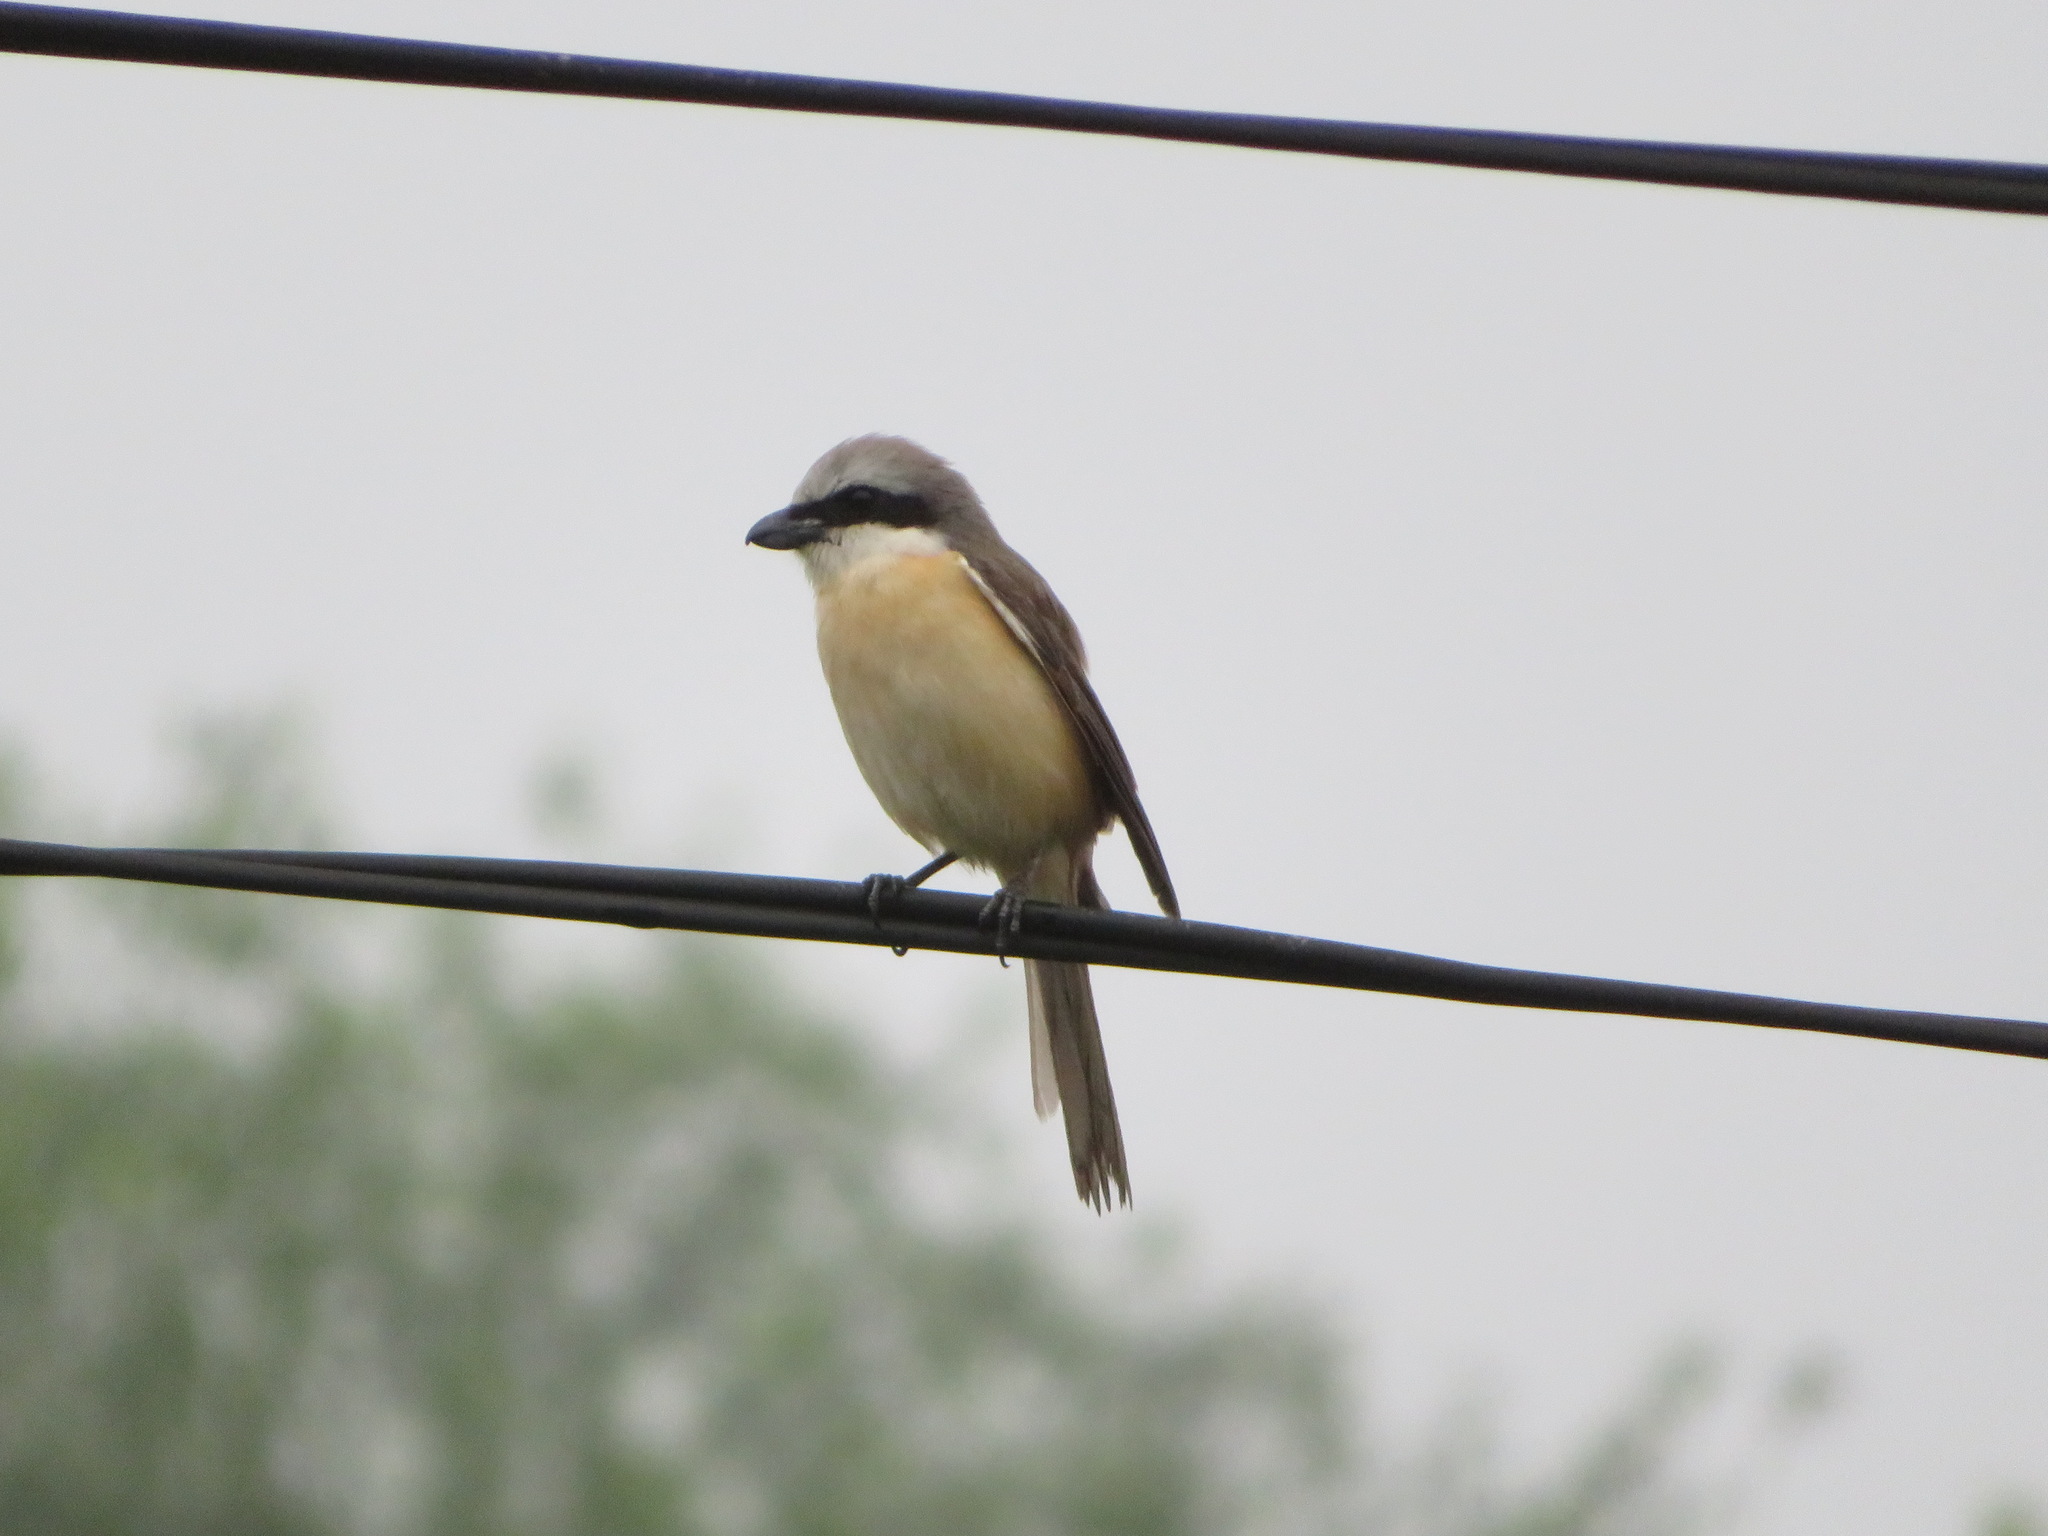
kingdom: Animalia
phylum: Chordata
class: Aves
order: Passeriformes
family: Laniidae
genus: Lanius
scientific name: Lanius cristatus
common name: Brown shrike
